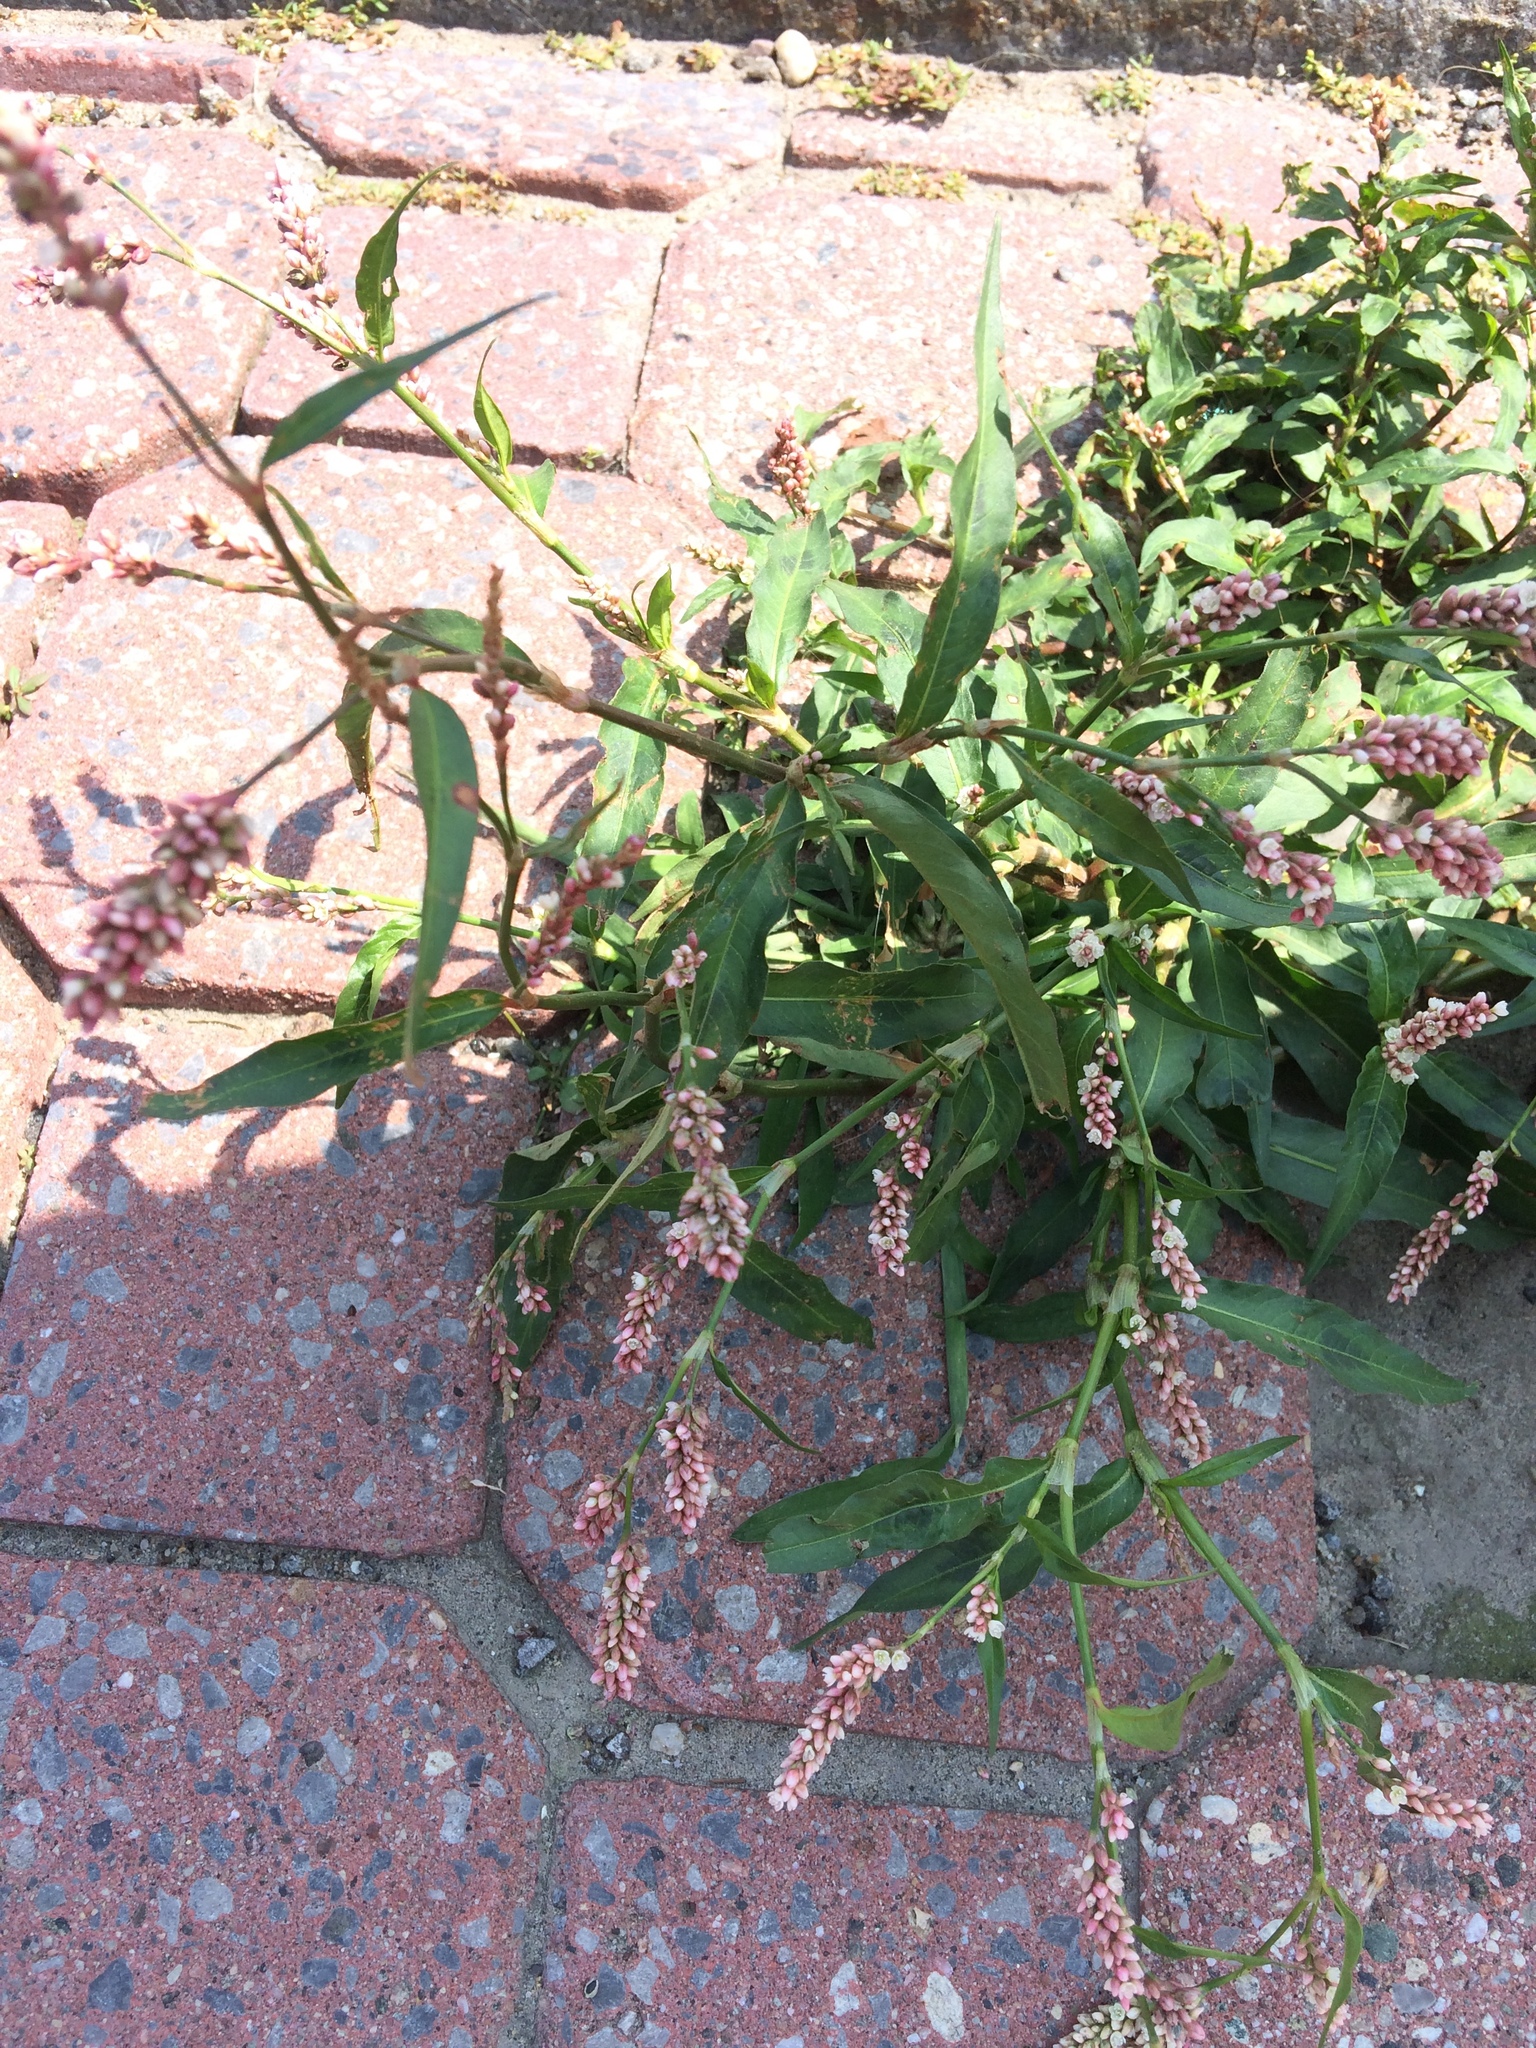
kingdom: Plantae
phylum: Tracheophyta
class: Magnoliopsida
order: Caryophyllales
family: Polygonaceae
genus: Persicaria
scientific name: Persicaria maculosa
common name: Redshank
